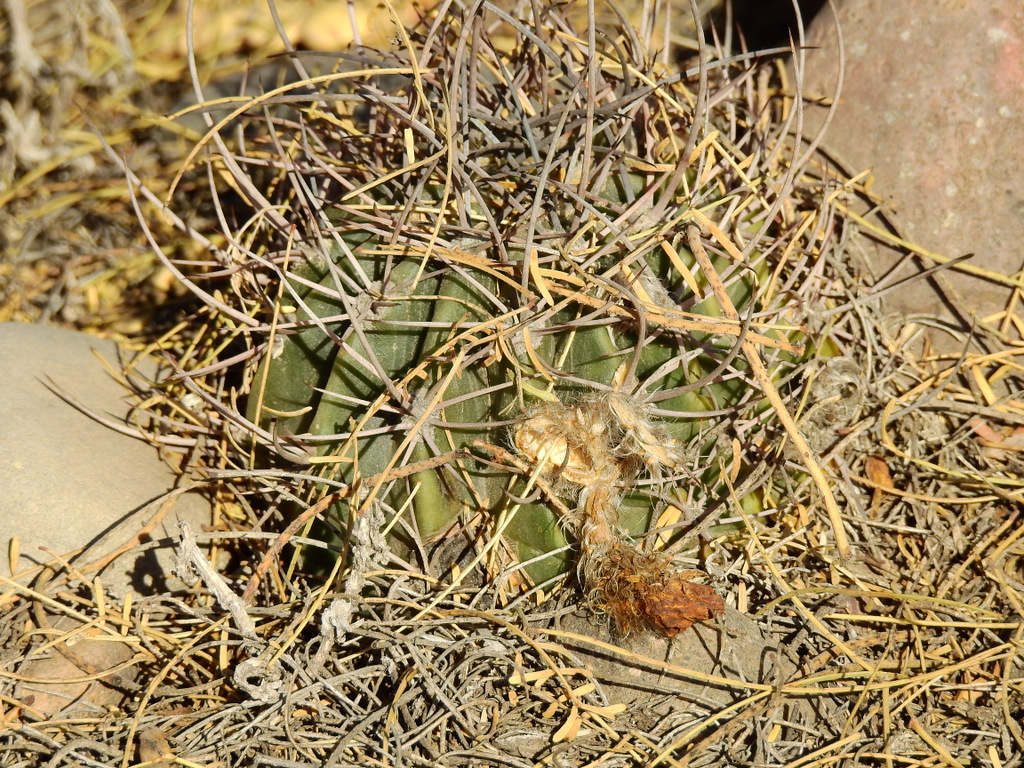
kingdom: Plantae
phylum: Tracheophyta
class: Magnoliopsida
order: Caryophyllales
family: Cactaceae
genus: Acanthocalycium
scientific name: Acanthocalycium leucanthum
